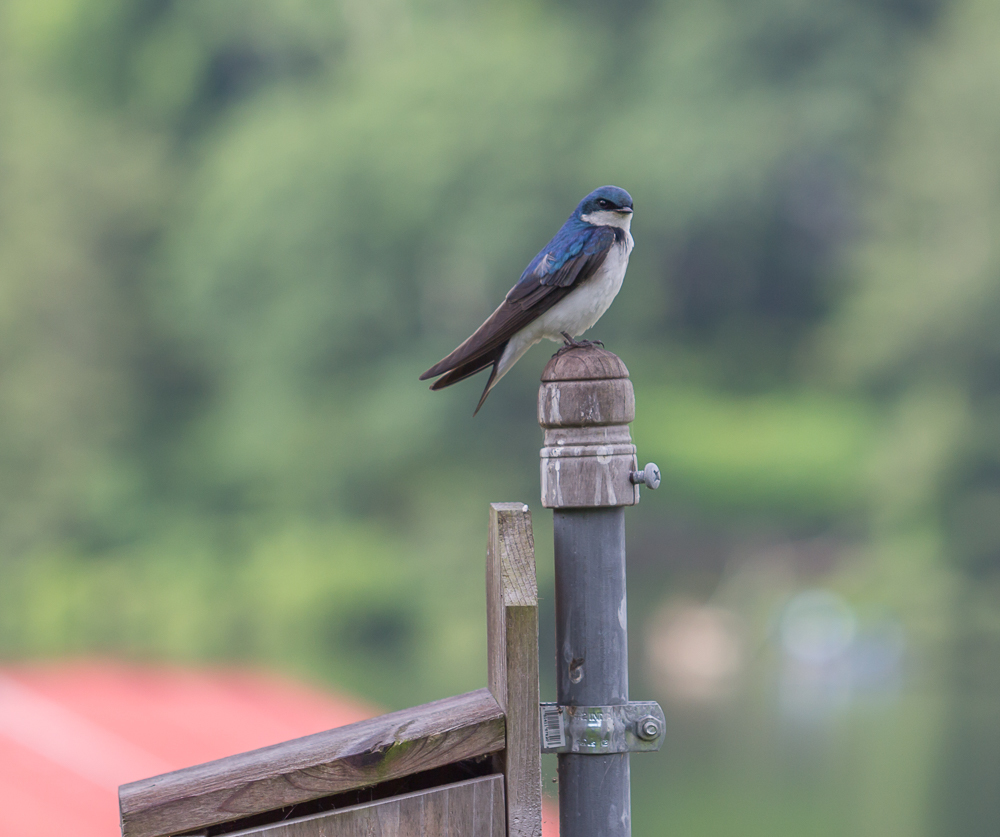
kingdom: Animalia
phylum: Chordata
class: Aves
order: Passeriformes
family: Hirundinidae
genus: Tachycineta
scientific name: Tachycineta bicolor
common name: Tree swallow
